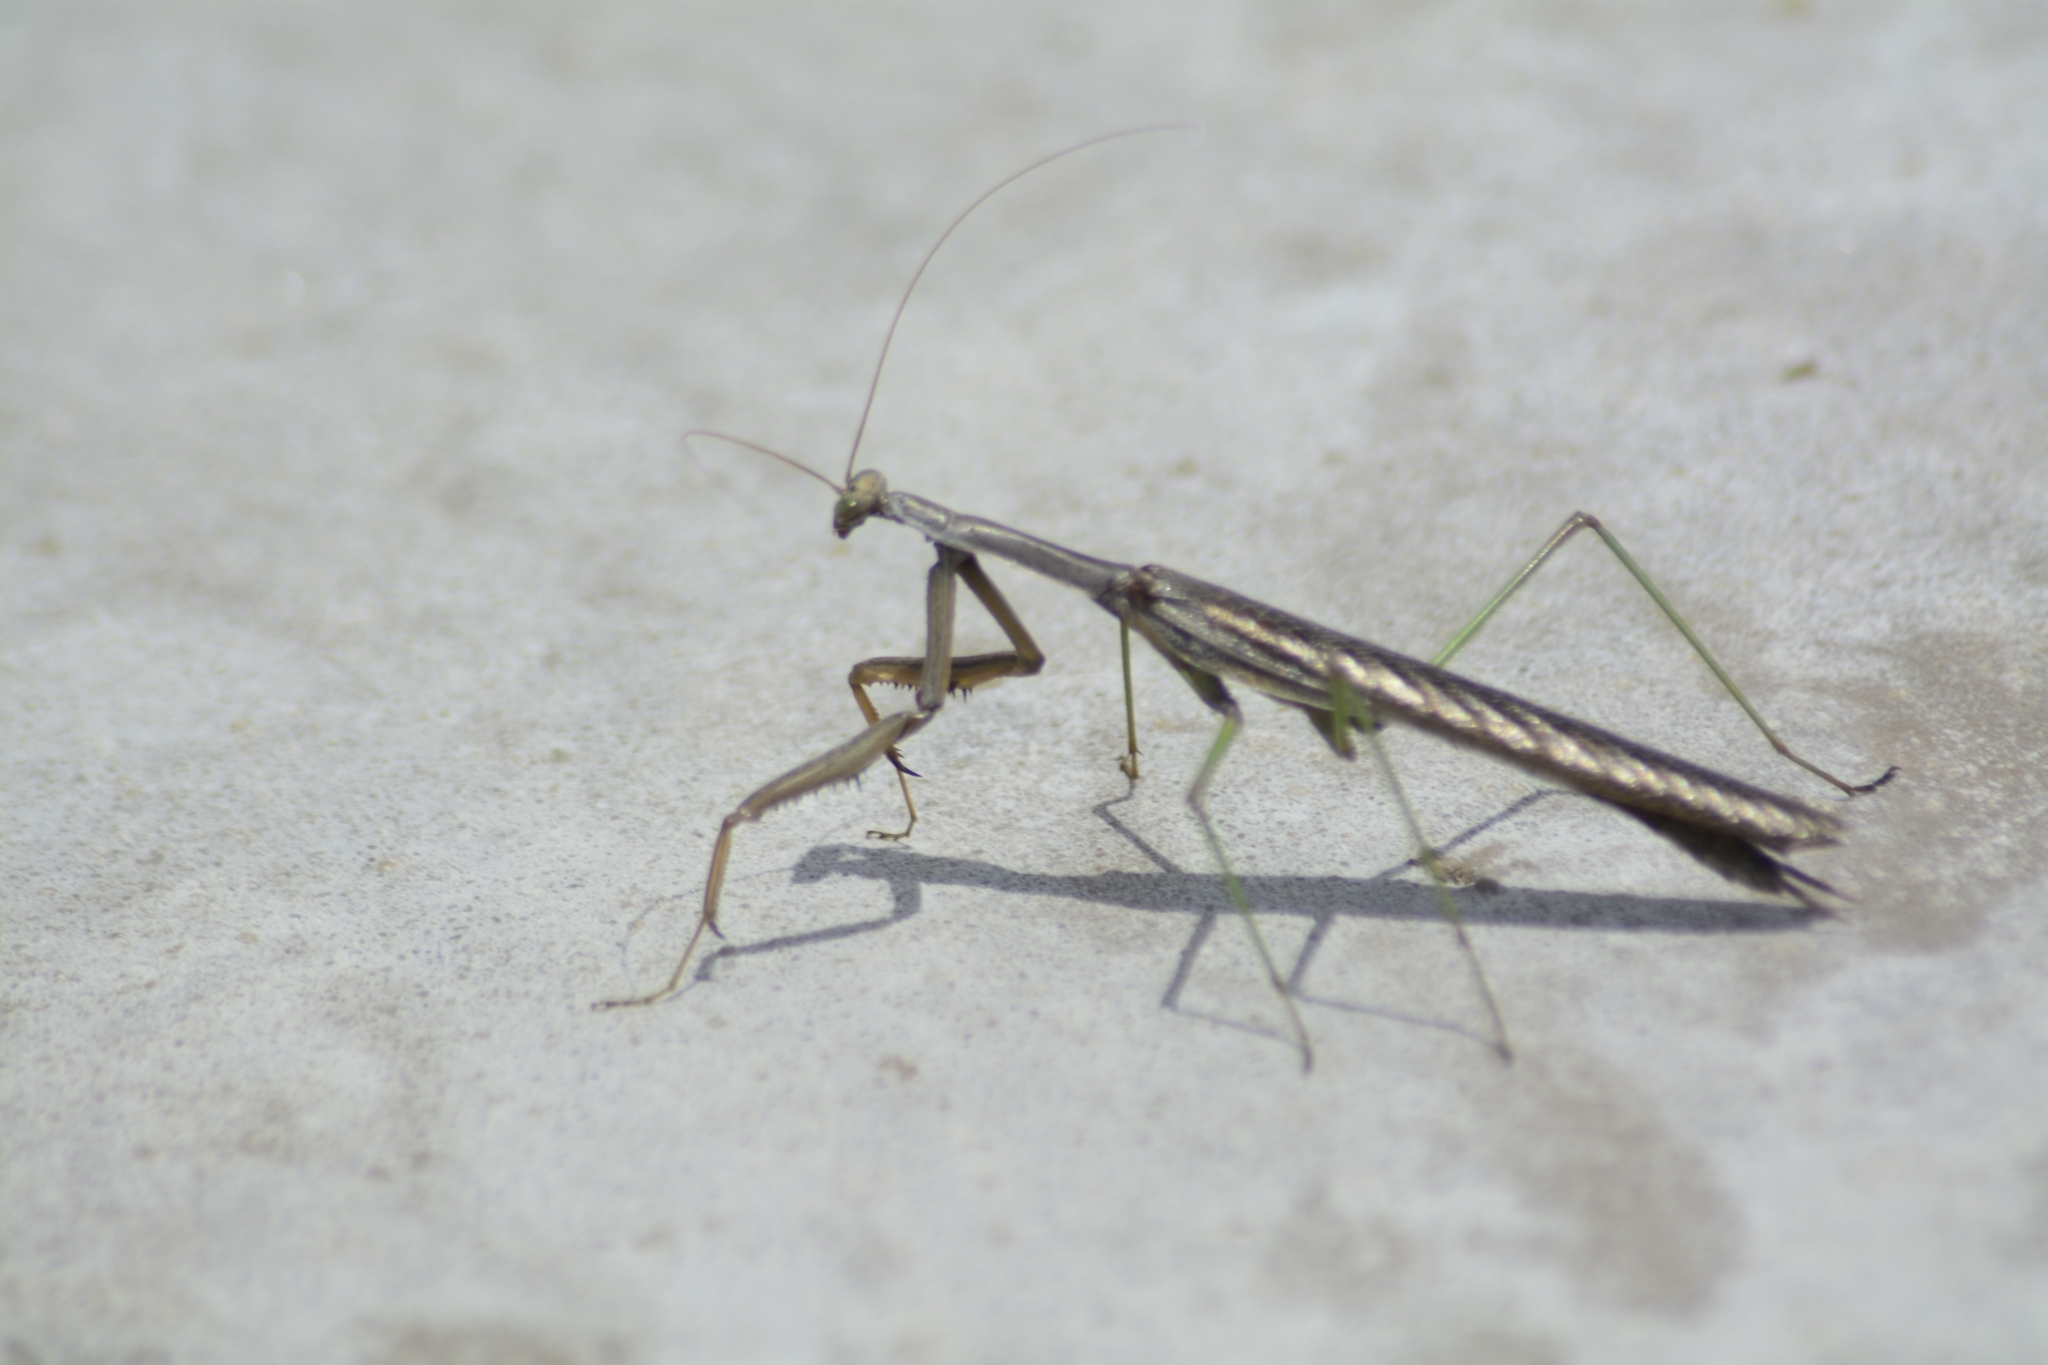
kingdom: Animalia
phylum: Arthropoda
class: Insecta
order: Mantodea
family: Coptopterygidae
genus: Coptopteryx
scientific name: Coptopteryx gayi
